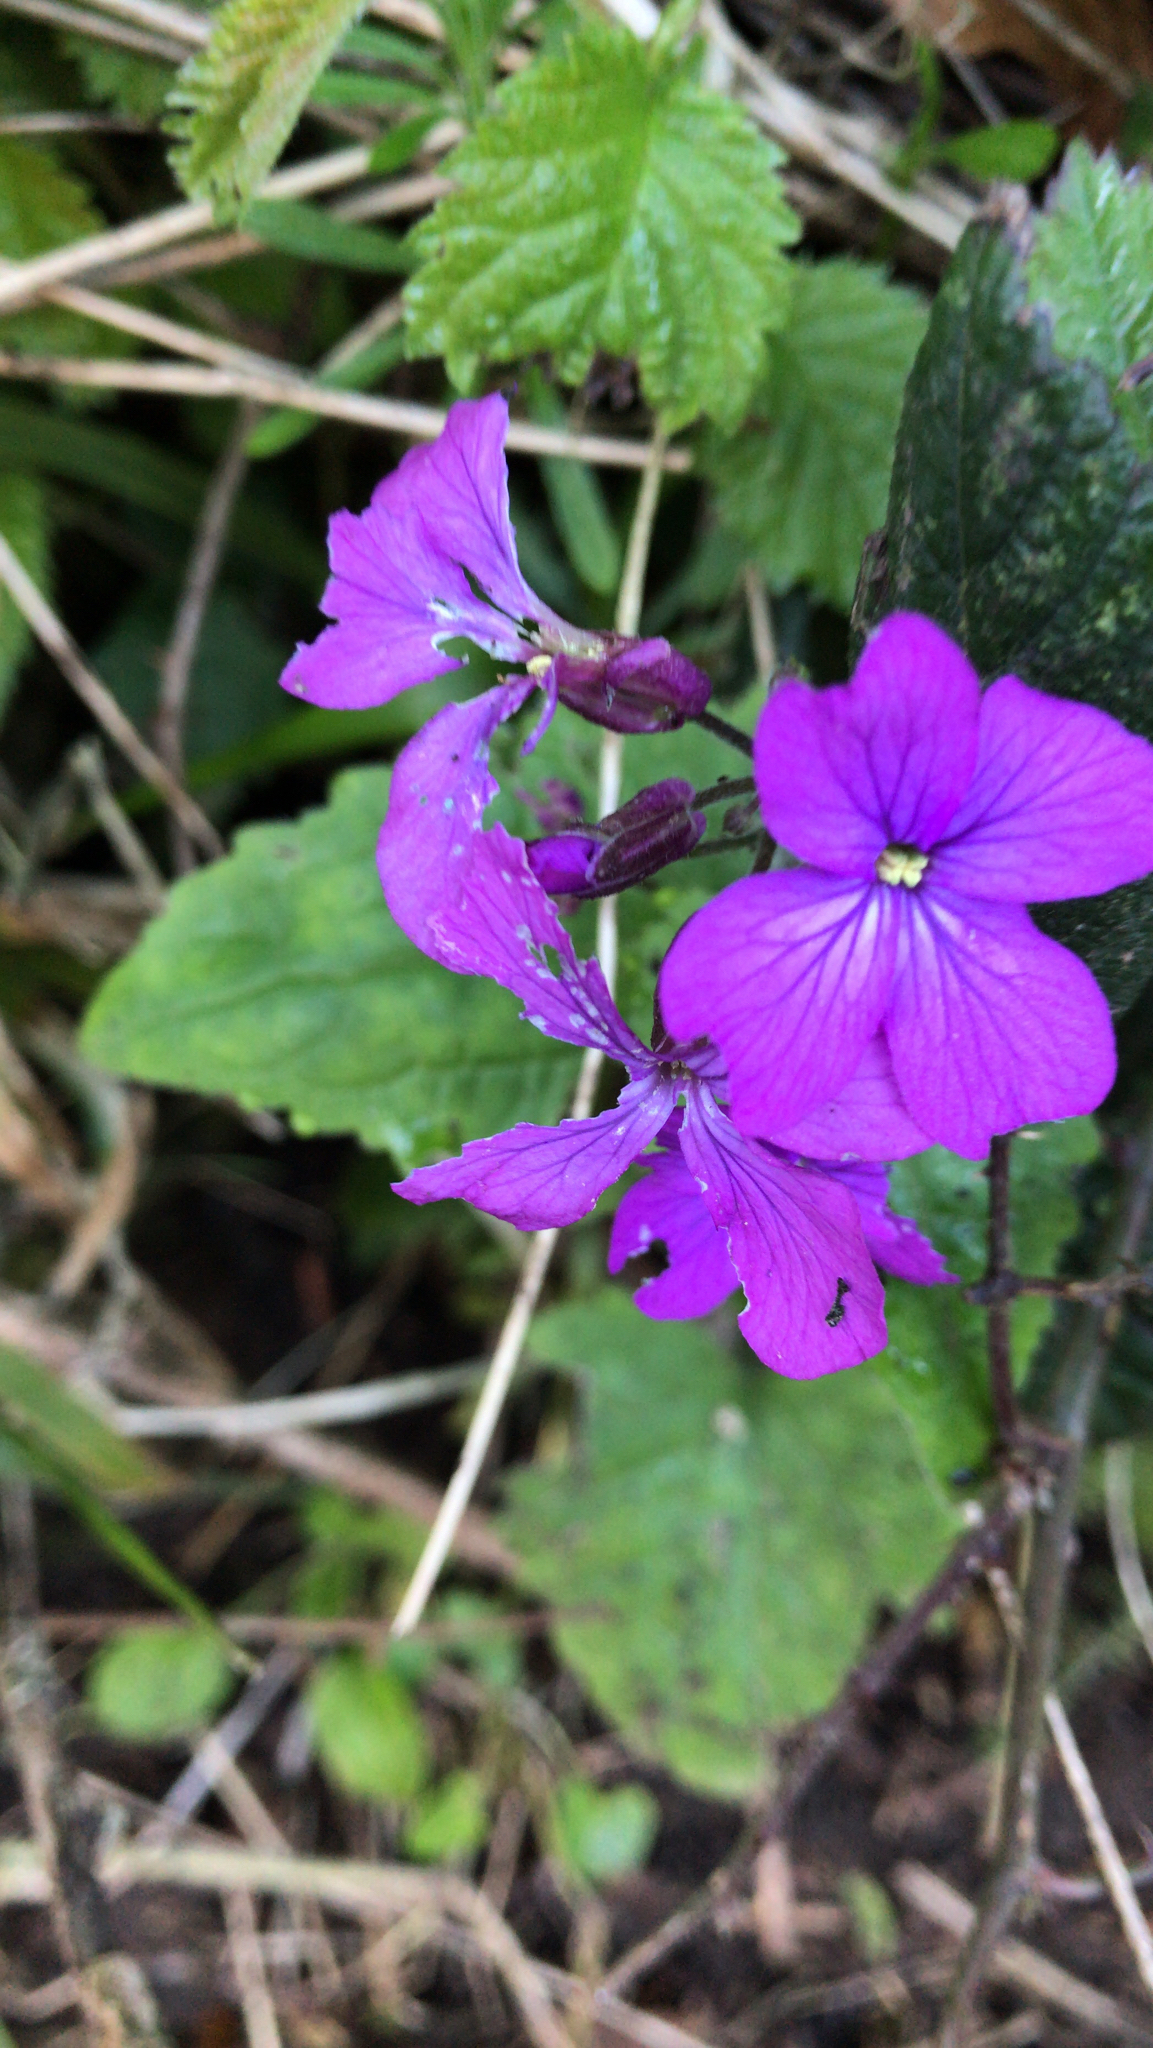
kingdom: Plantae
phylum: Tracheophyta
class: Magnoliopsida
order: Brassicales
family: Brassicaceae
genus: Lunaria
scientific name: Lunaria annua
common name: Honesty
